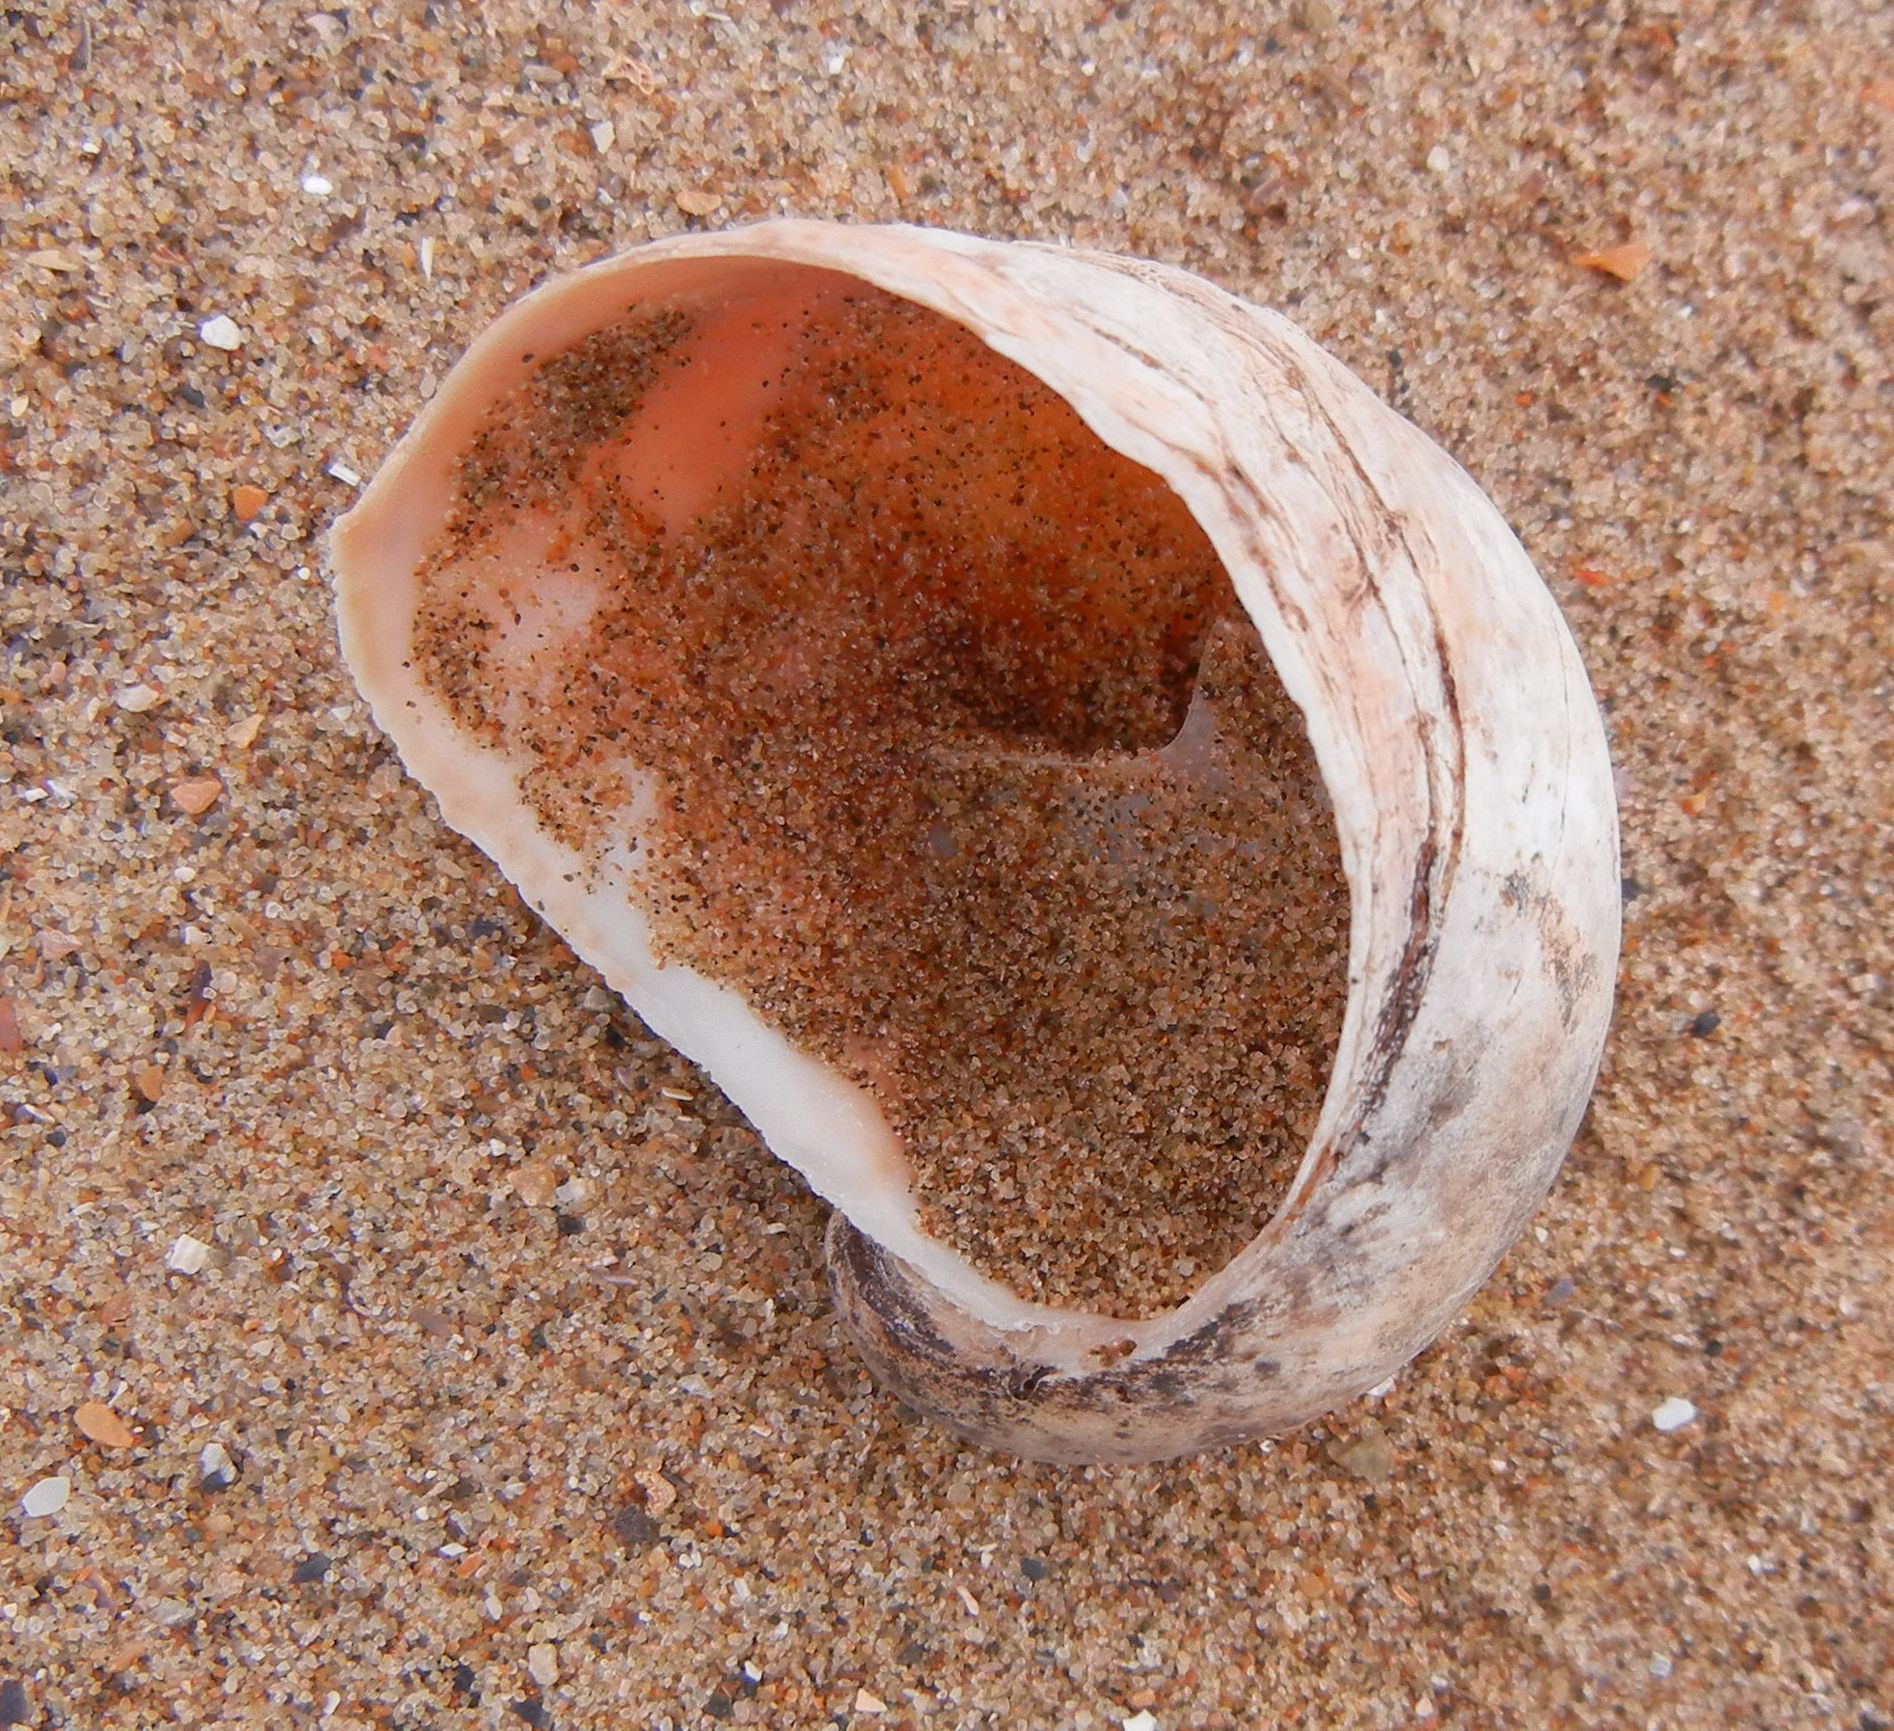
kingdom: Animalia
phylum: Mollusca
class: Gastropoda
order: Littorinimorpha
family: Calyptraeidae
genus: Crepidula
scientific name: Crepidula fornicata
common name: Slipper limpet
